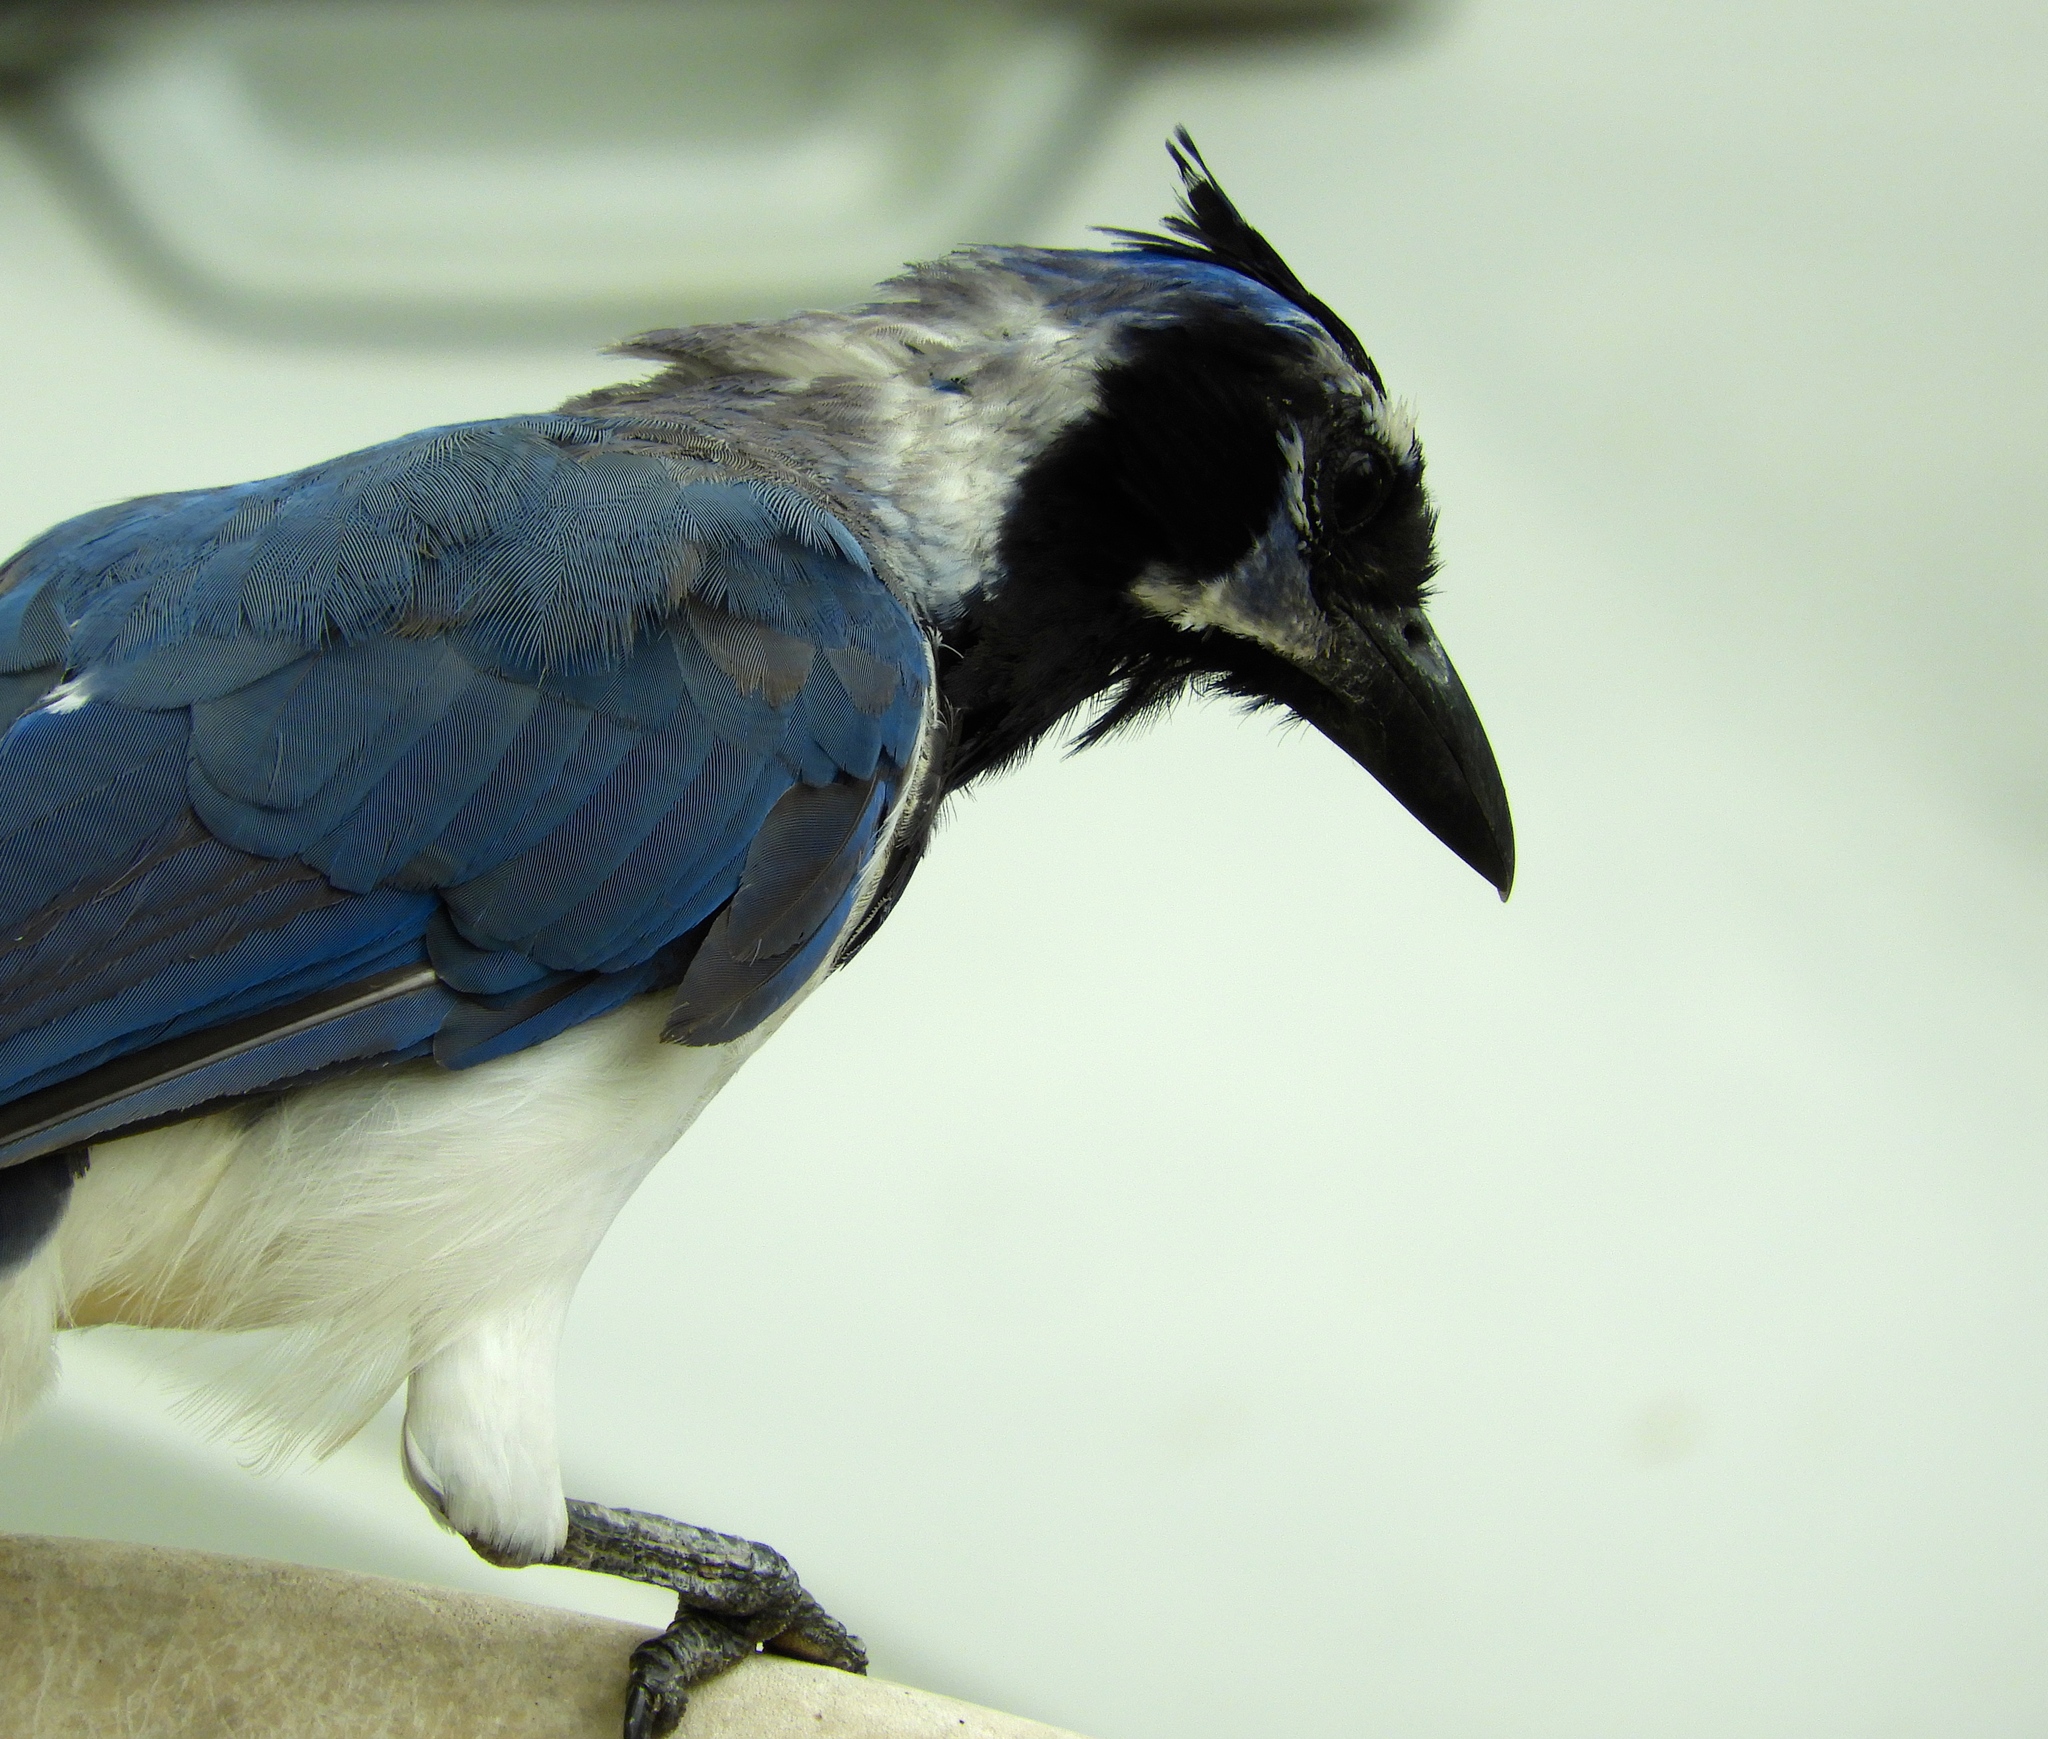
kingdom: Animalia
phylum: Chordata
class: Aves
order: Passeriformes
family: Corvidae
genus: Calocitta
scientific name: Calocitta colliei
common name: Black-throated magpie-jay
